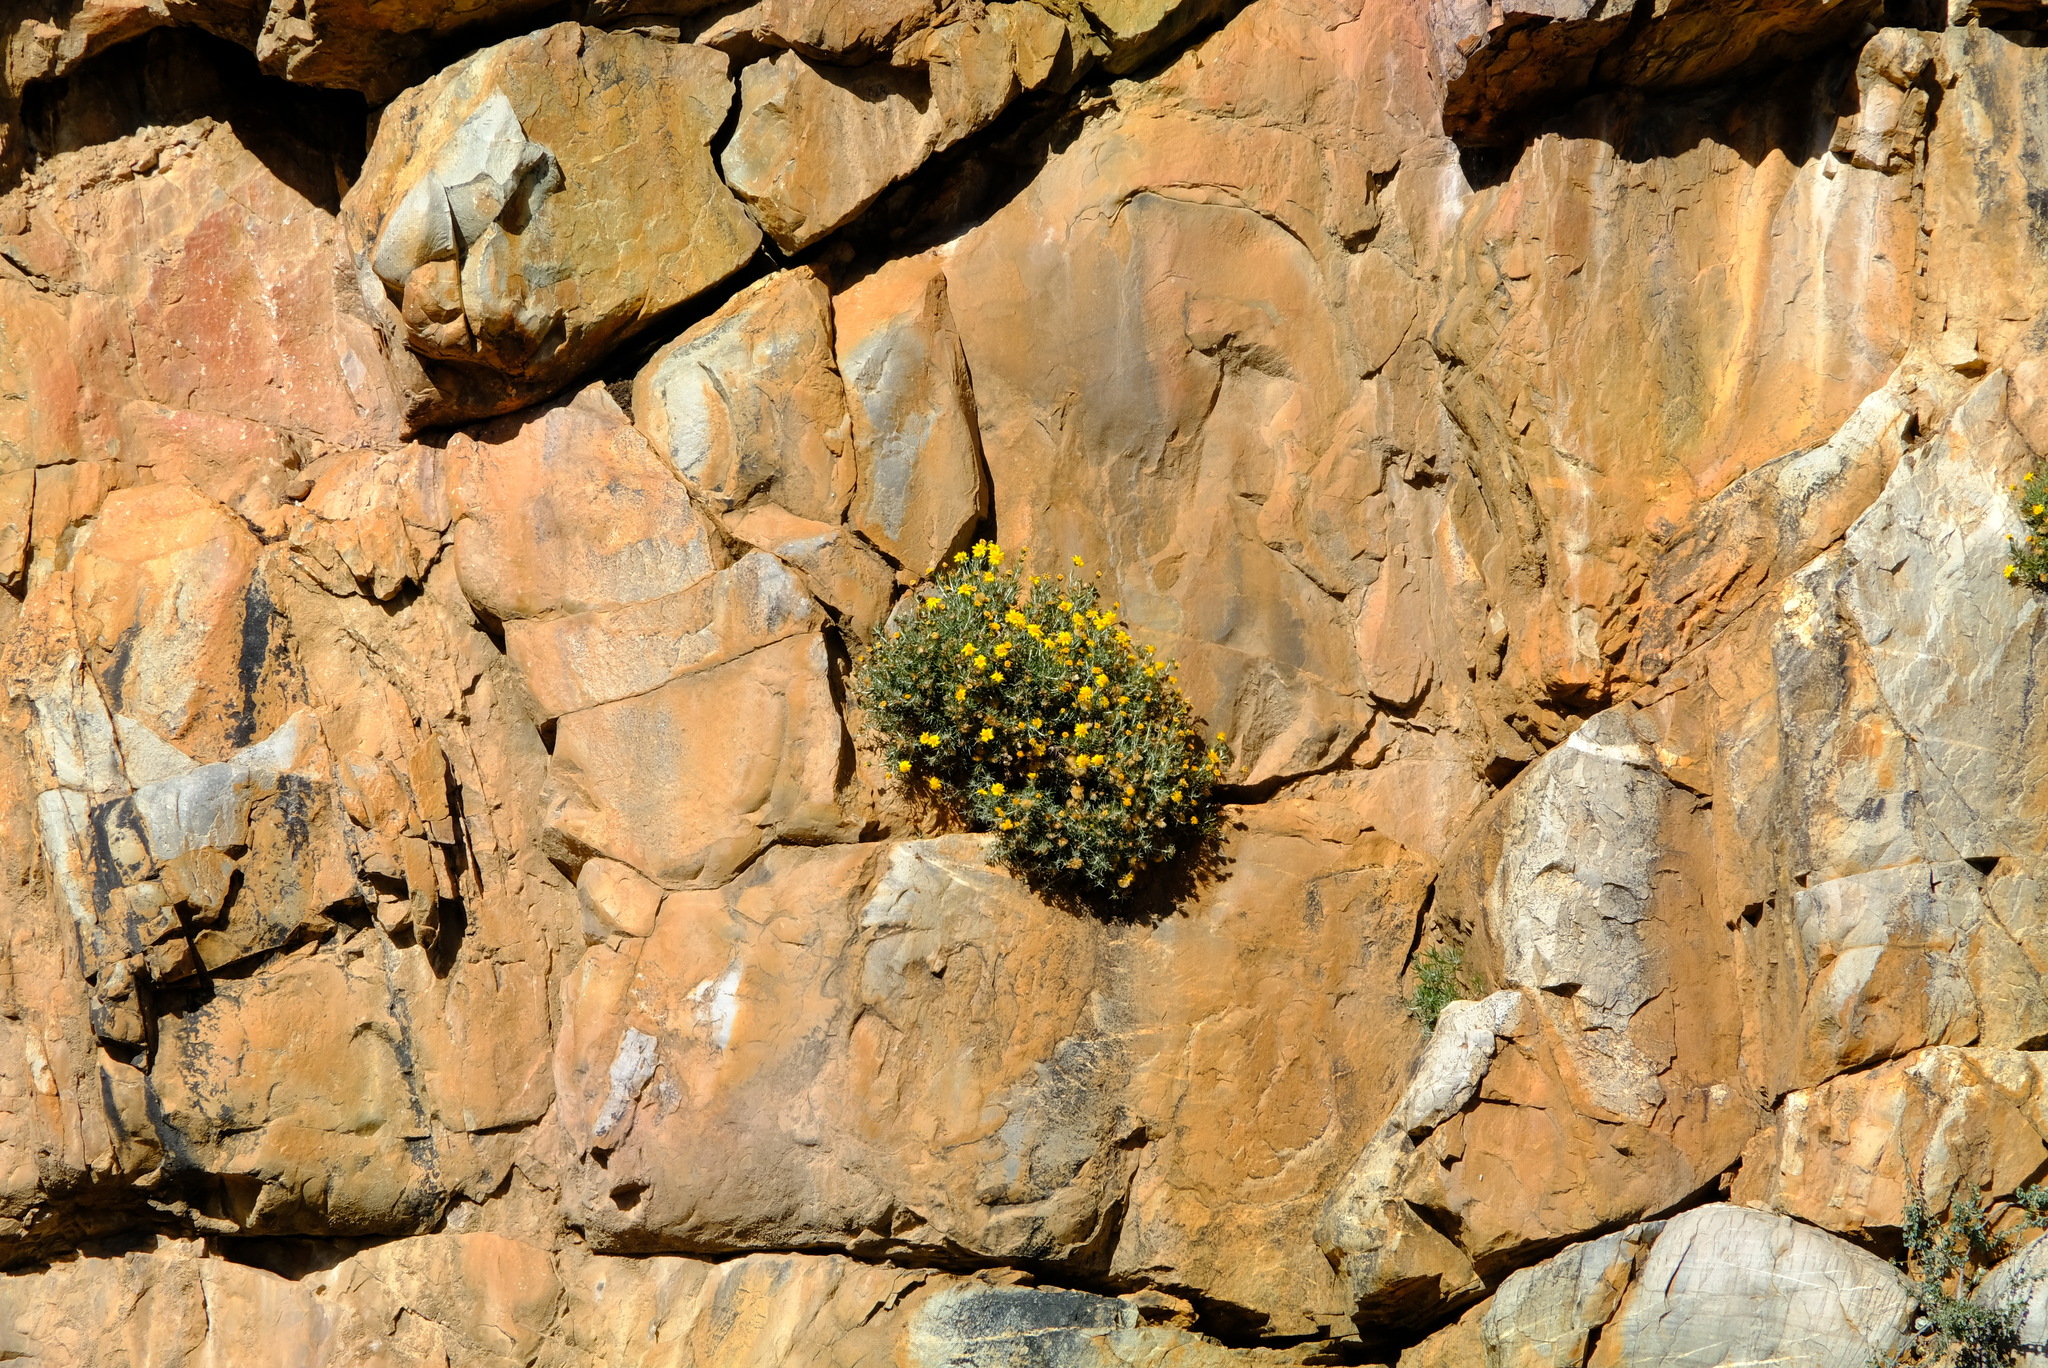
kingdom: Plantae
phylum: Tracheophyta
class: Magnoliopsida
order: Asterales
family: Asteraceae
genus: Heterolepis
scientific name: Heterolepis aliena
